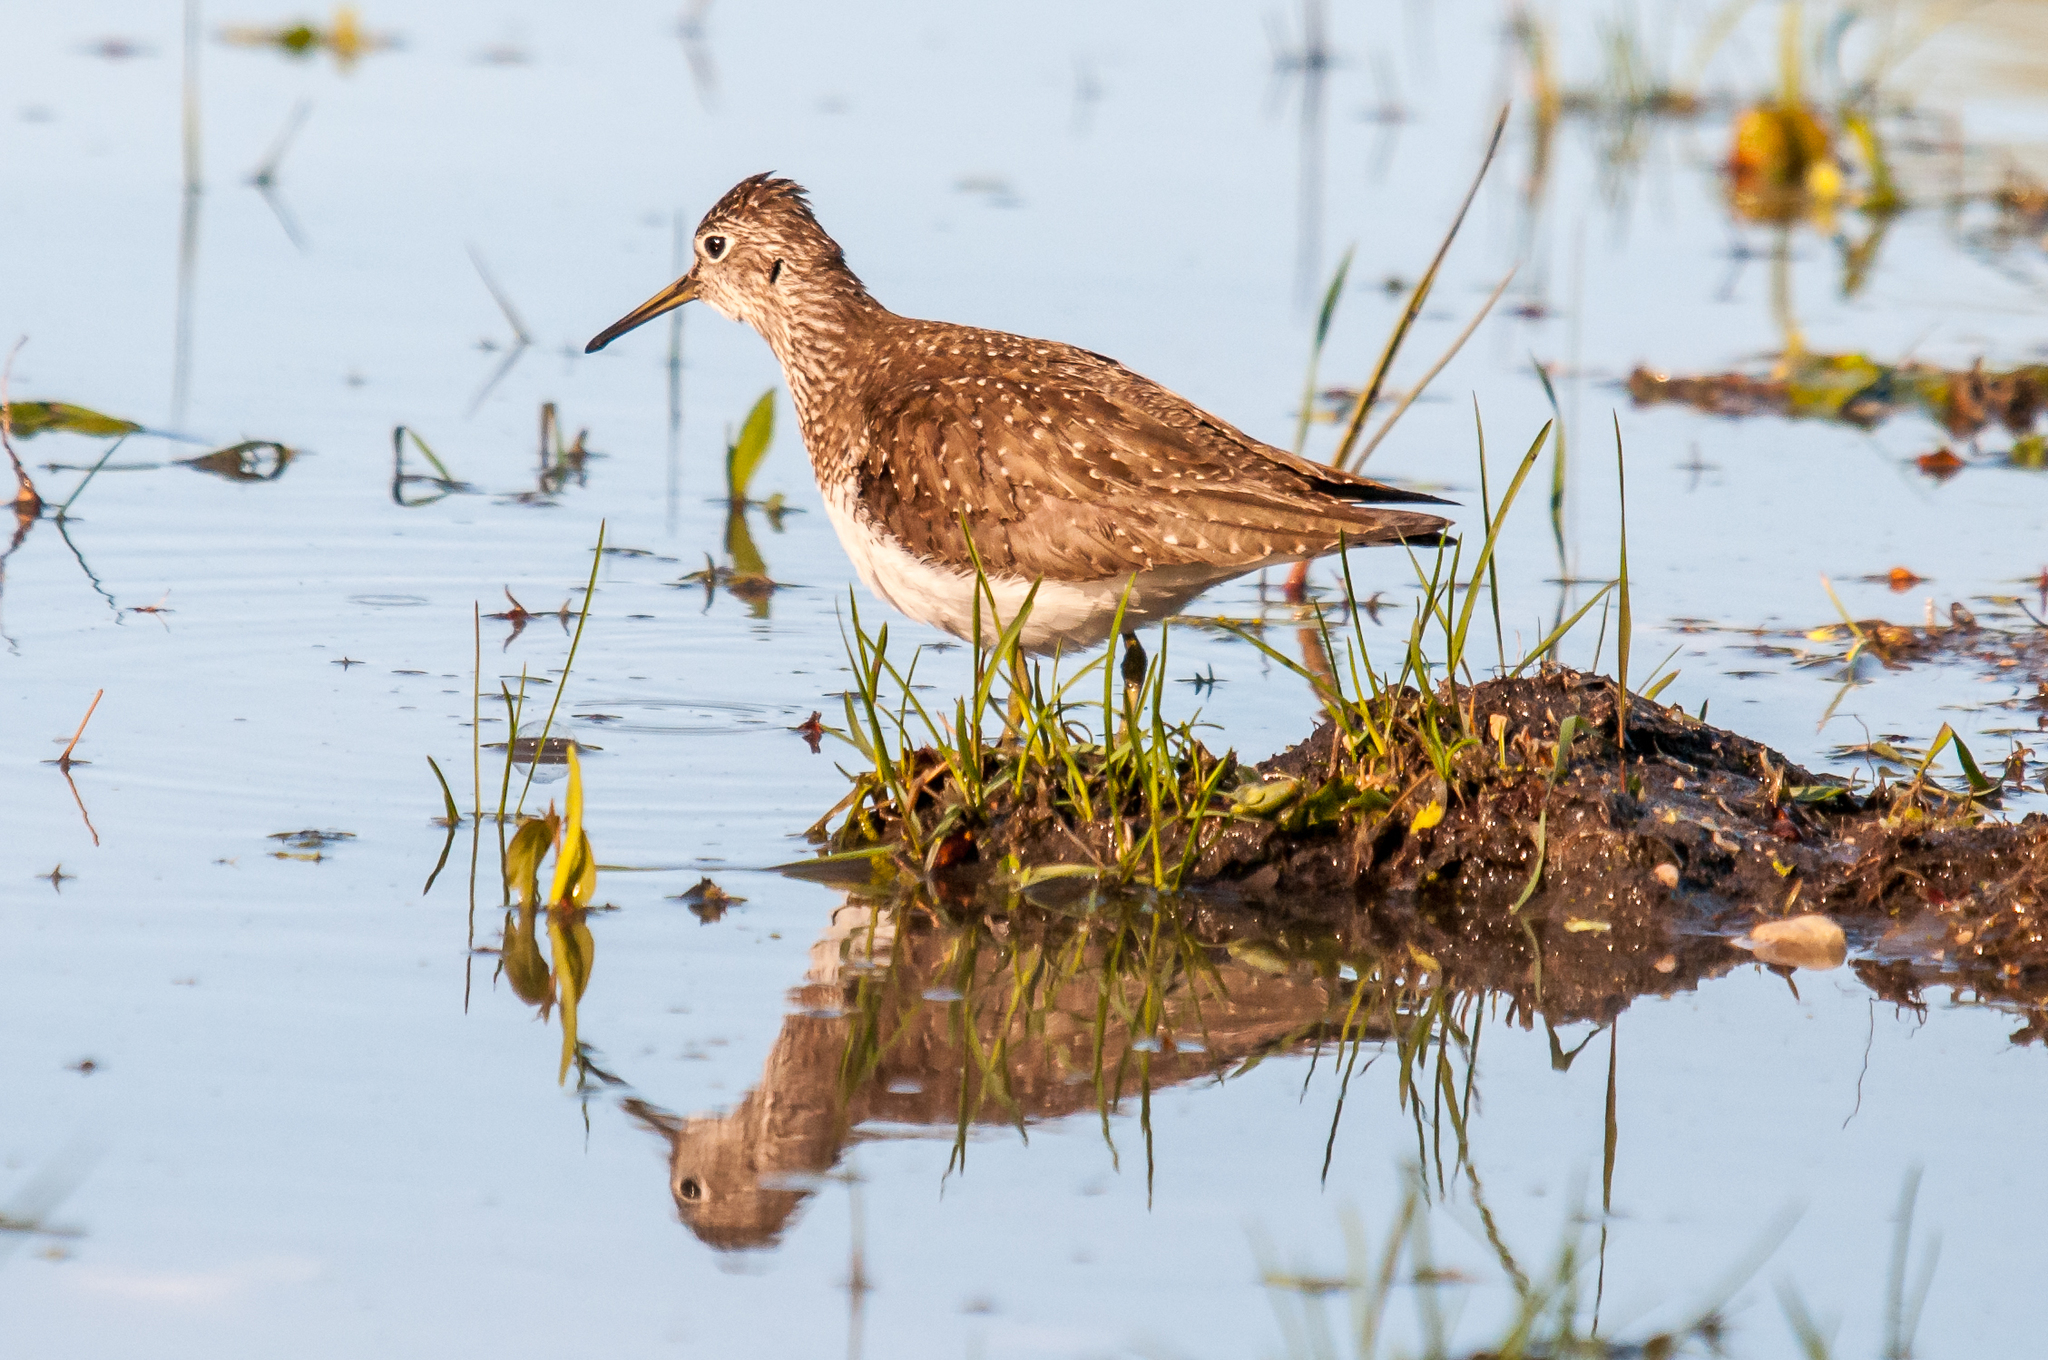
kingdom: Animalia
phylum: Chordata
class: Aves
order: Charadriiformes
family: Scolopacidae
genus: Tringa
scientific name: Tringa solitaria
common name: Solitary sandpiper
